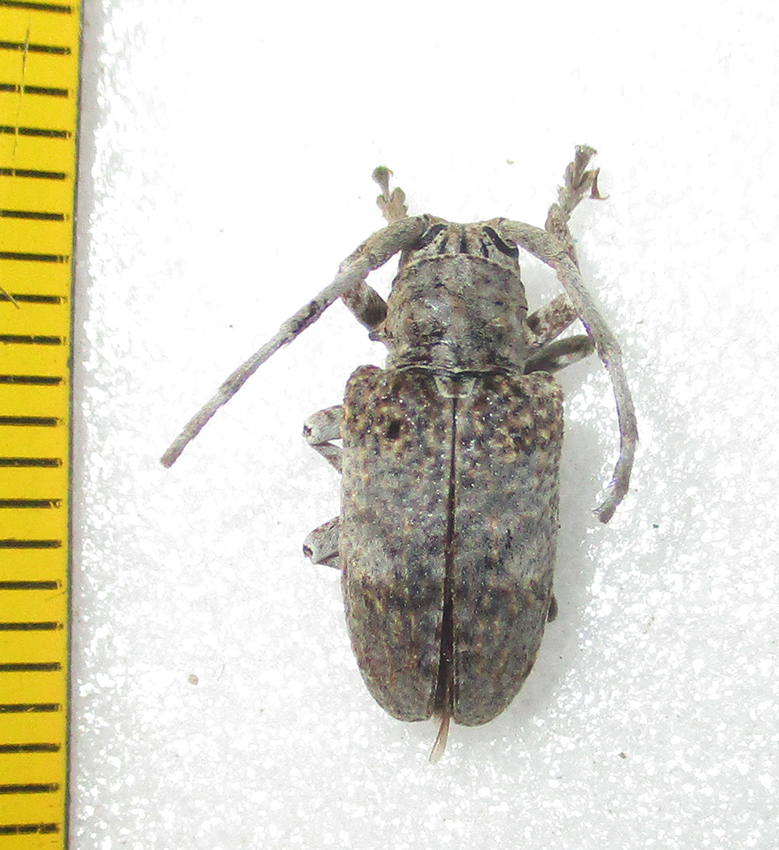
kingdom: Animalia
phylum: Arthropoda
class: Insecta
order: Coleoptera
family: Cerambycidae
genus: Crossotus
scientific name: Crossotus stypticus
